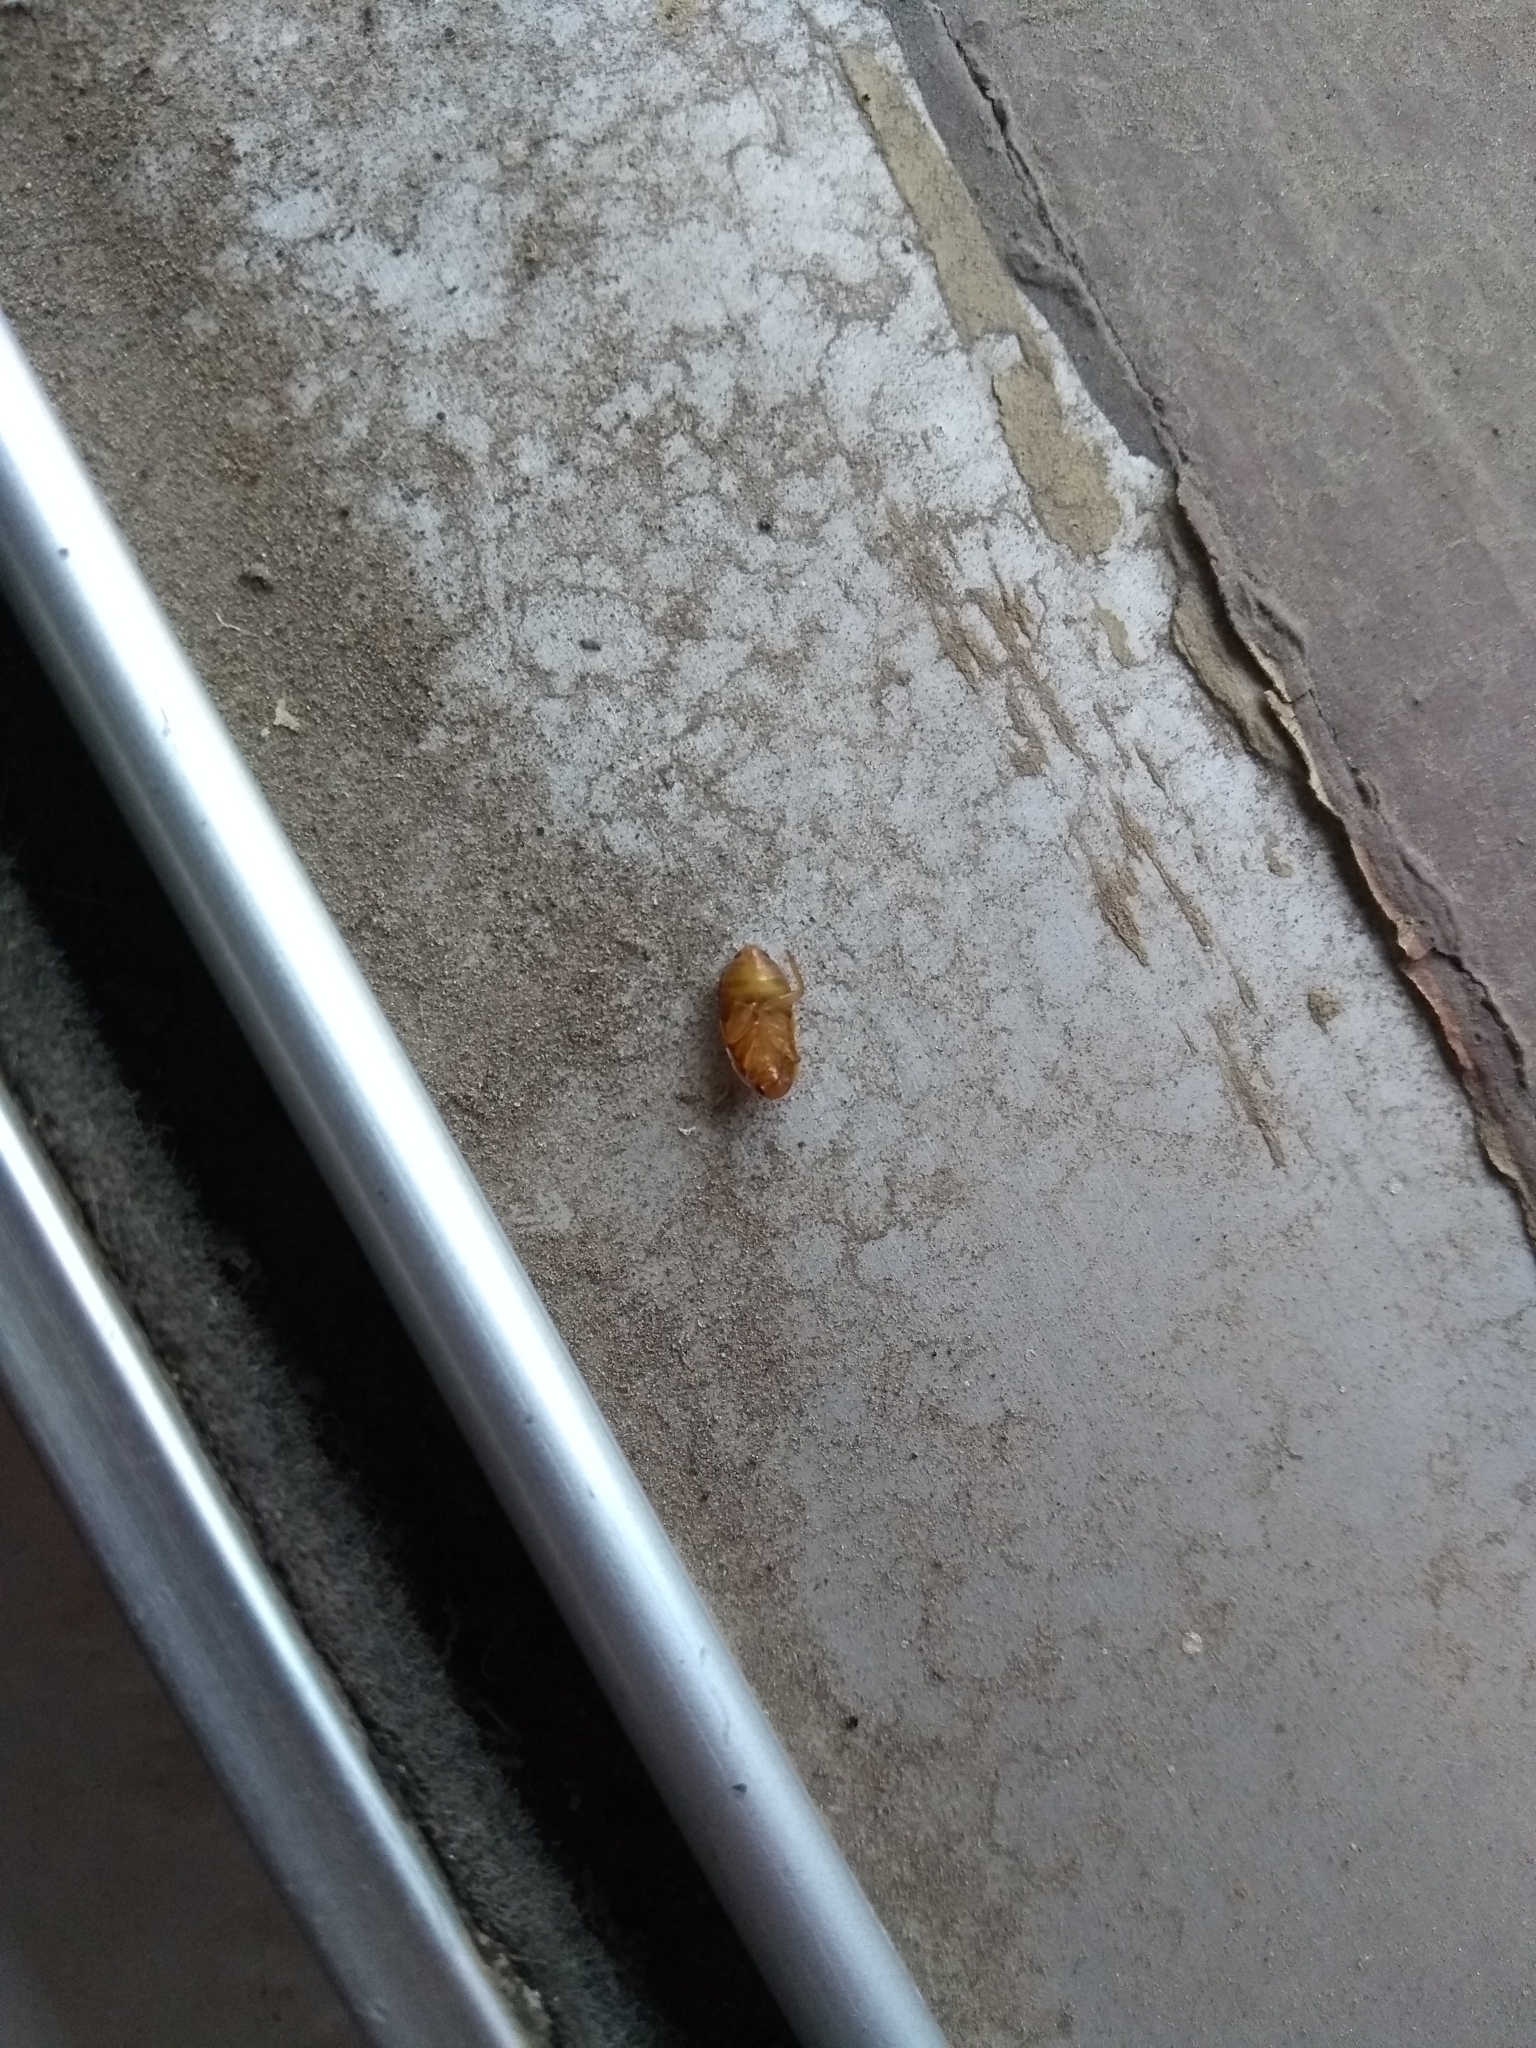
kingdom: Animalia
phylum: Arthropoda
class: Insecta
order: Blattodea
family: Corydiidae
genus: Myrmecoblatta
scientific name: Myrmecoblatta hebardi
